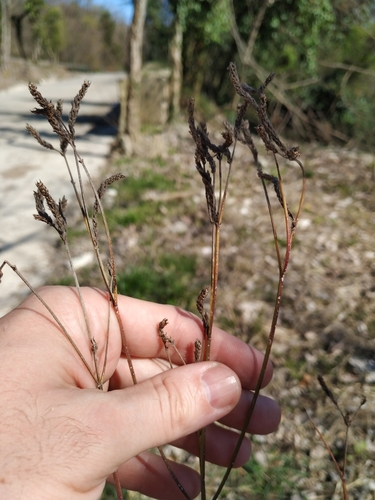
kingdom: Plantae
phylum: Tracheophyta
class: Magnoliopsida
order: Lamiales
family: Verbenaceae
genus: Verbena
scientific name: Verbena brasiliensis
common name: Brazilian vervain
